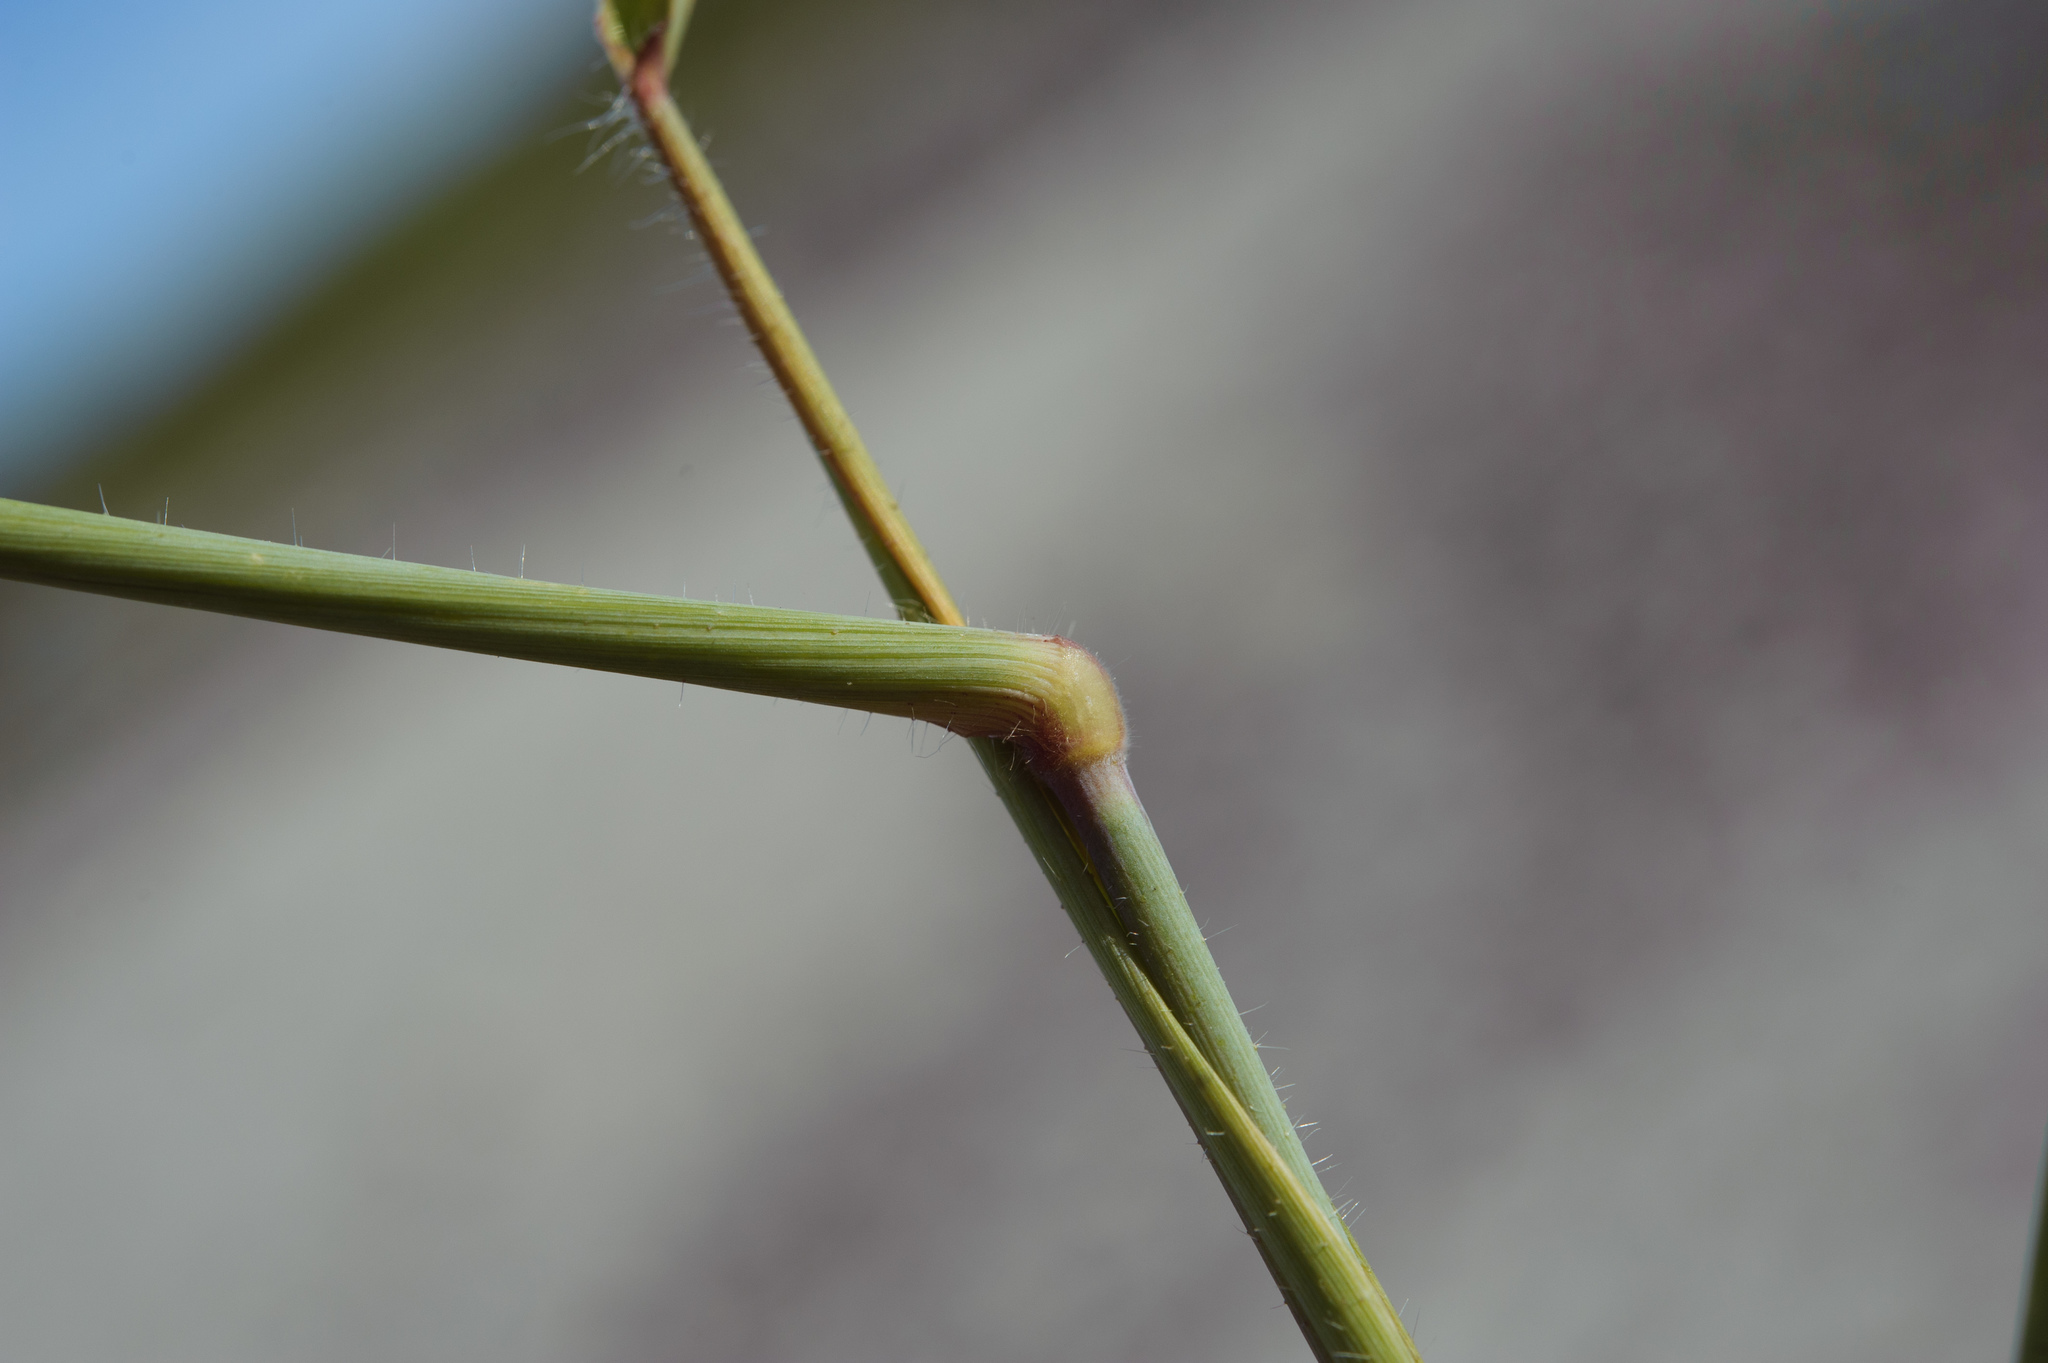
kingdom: Plantae
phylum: Tracheophyta
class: Liliopsida
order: Poales
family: Poaceae
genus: Melinis
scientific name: Melinis repens
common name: Rose natal grass
